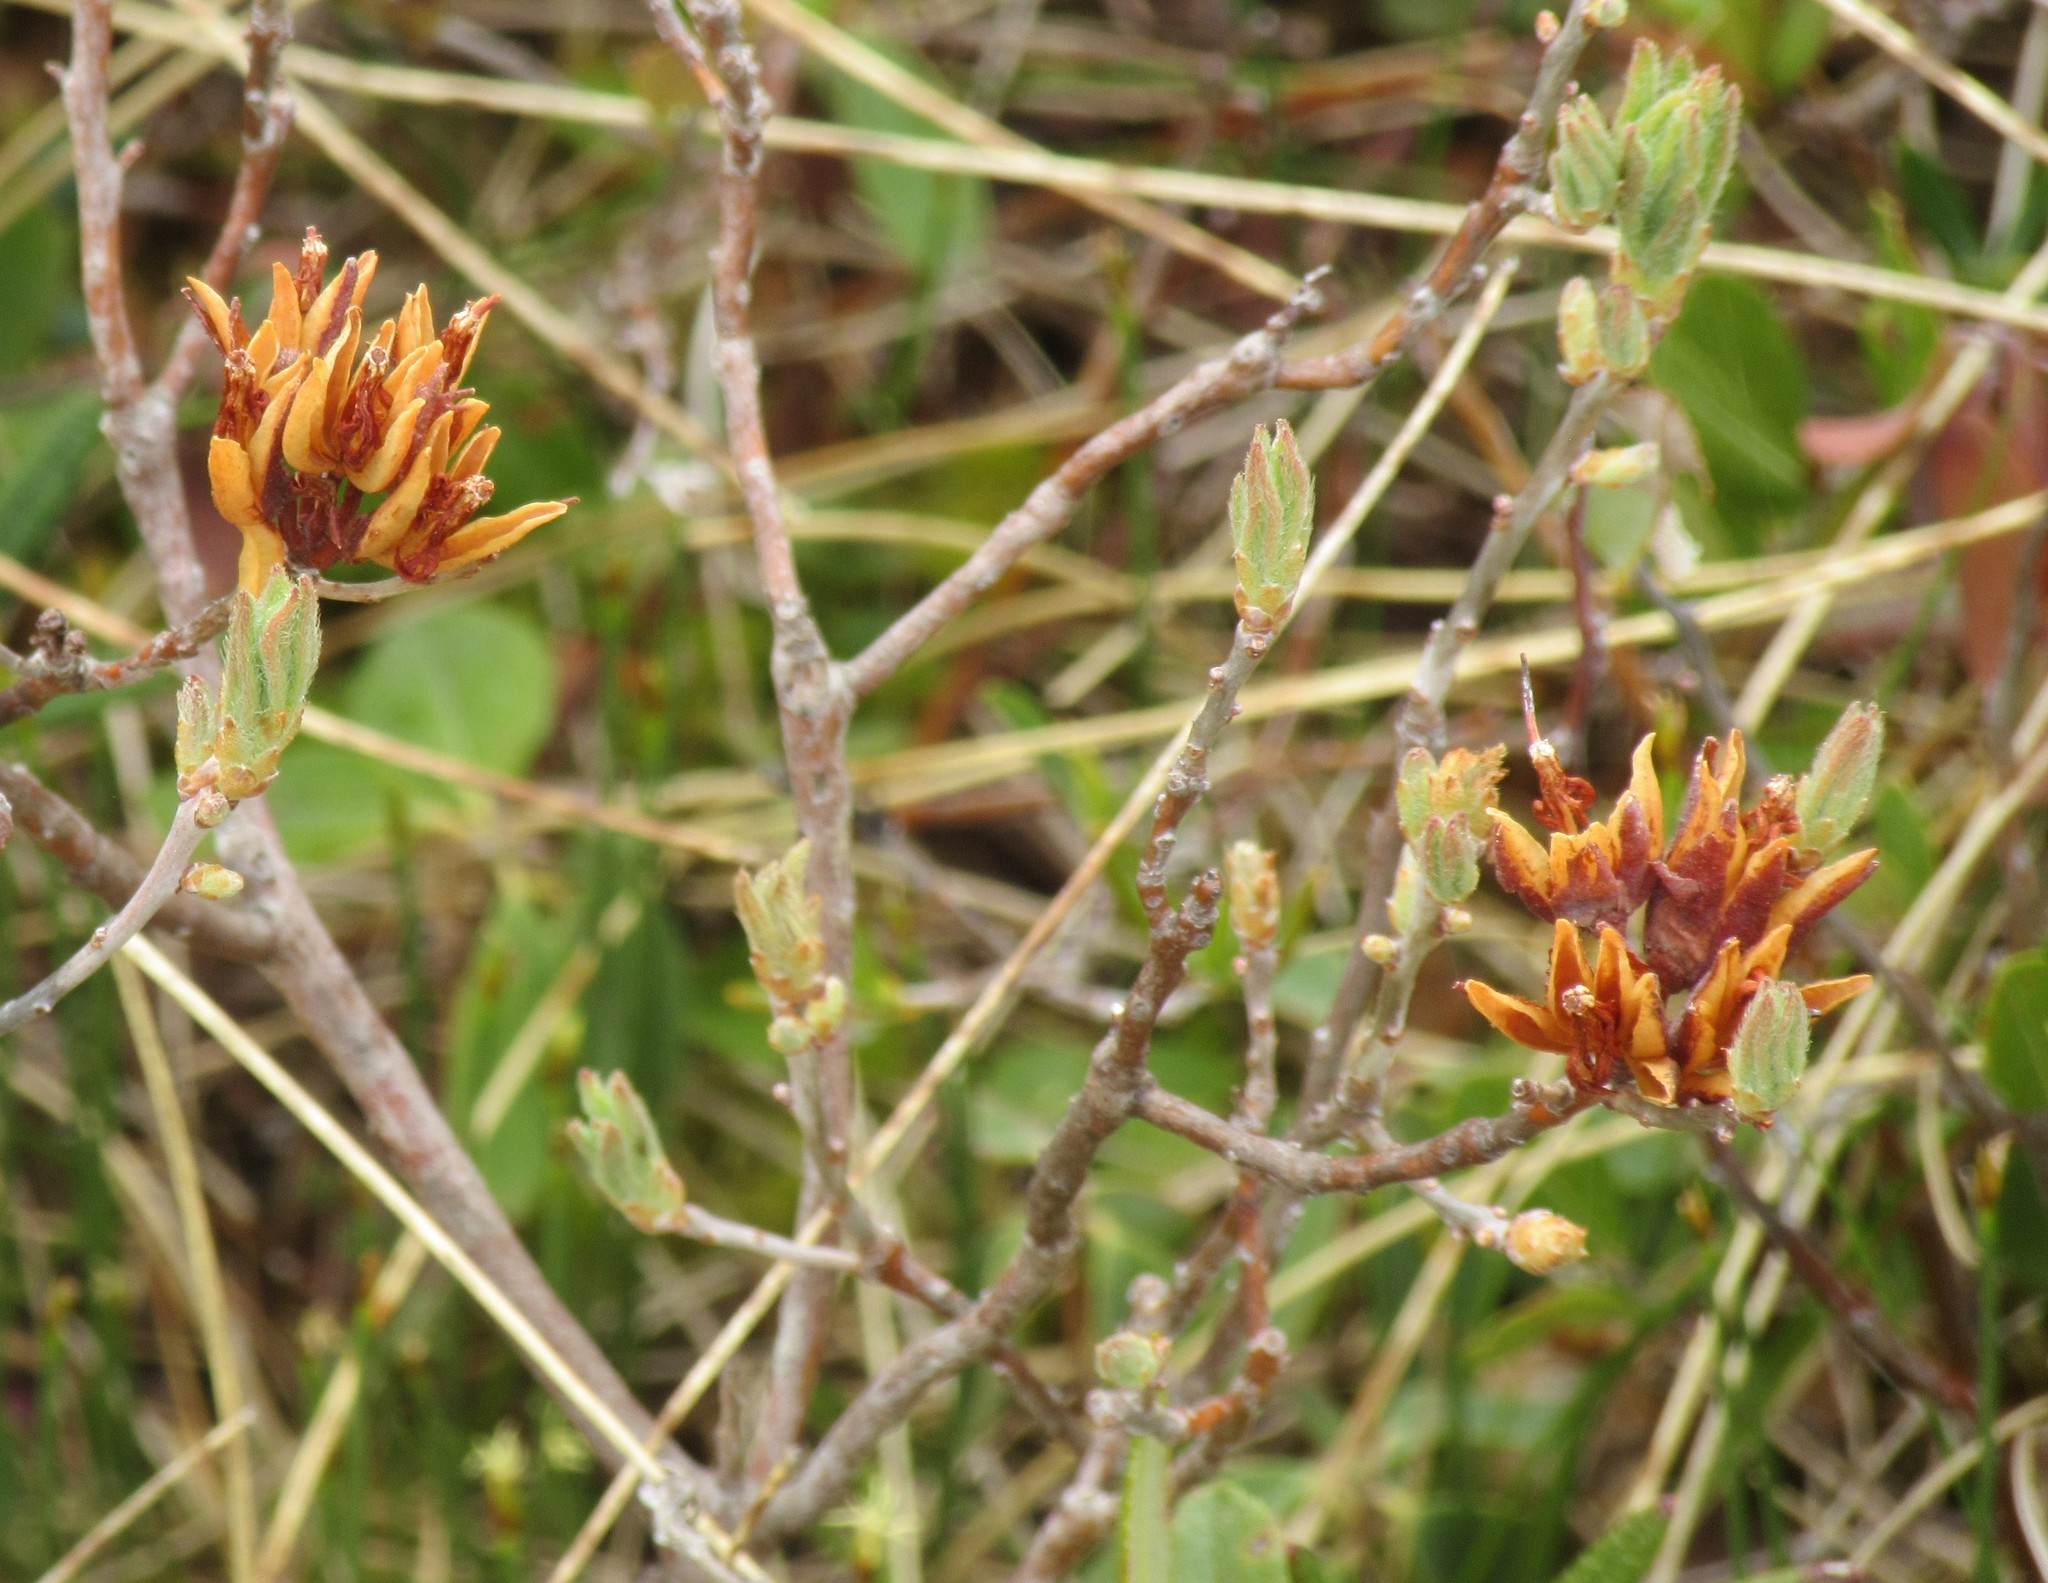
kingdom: Plantae
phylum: Tracheophyta
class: Magnoliopsida
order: Ericales
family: Ericaceae
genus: Rhododendron
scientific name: Rhododendron canadense
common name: Rhodora
